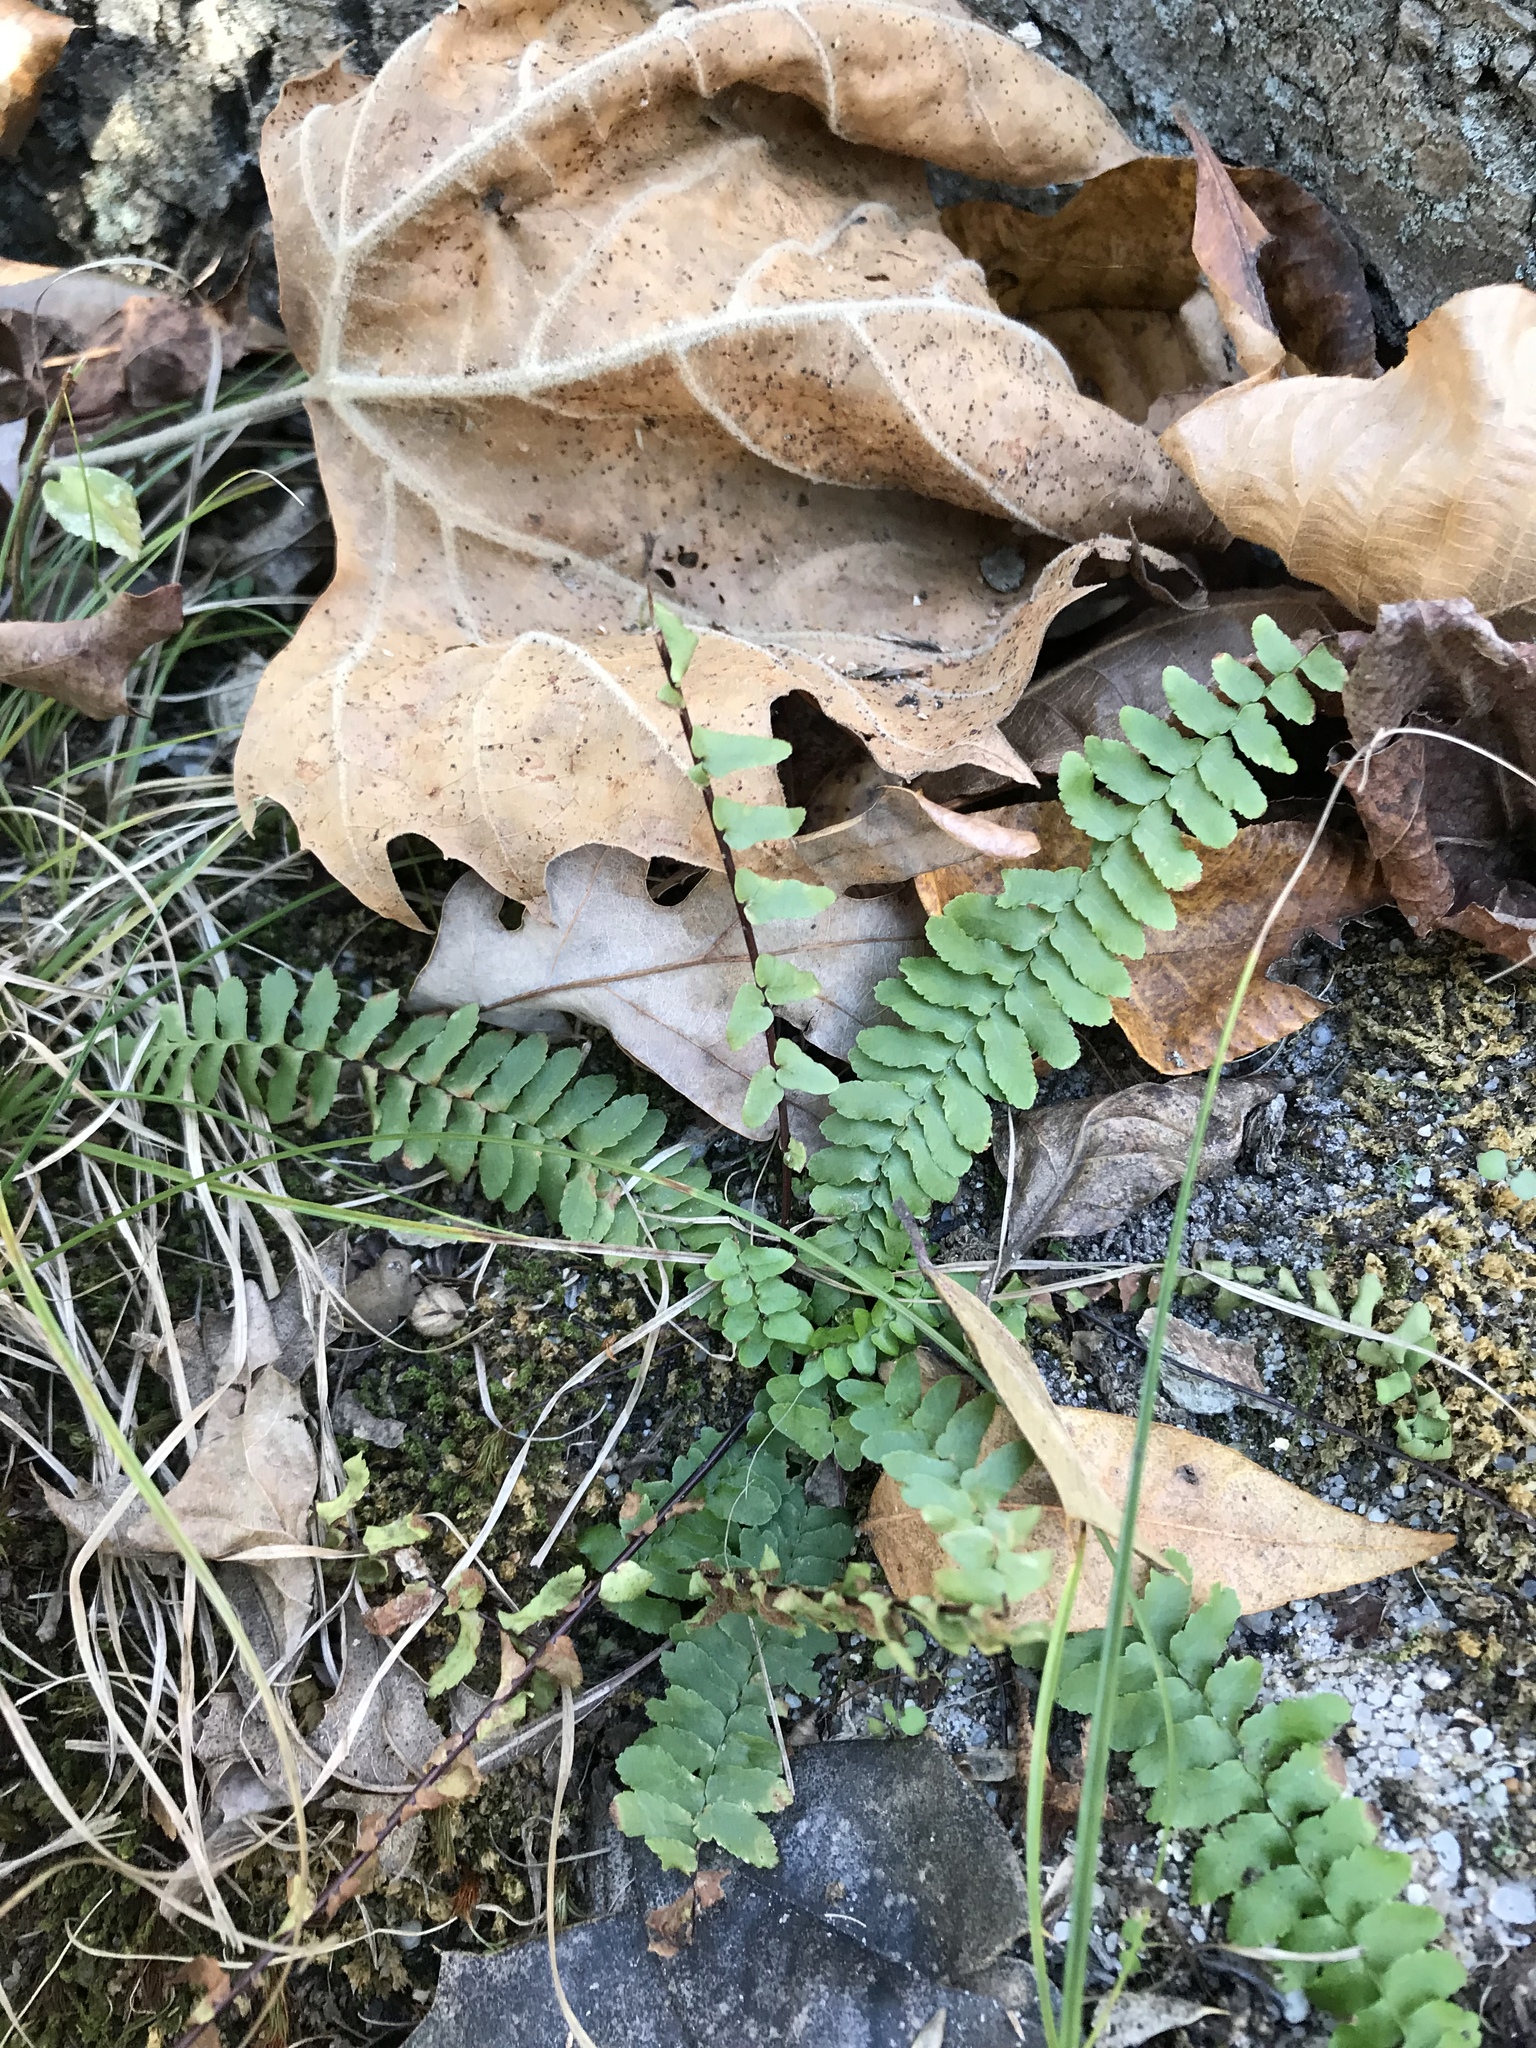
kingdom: Plantae
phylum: Tracheophyta
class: Polypodiopsida
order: Polypodiales
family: Aspleniaceae
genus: Asplenium
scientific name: Asplenium platyneuron
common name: Ebony spleenwort
